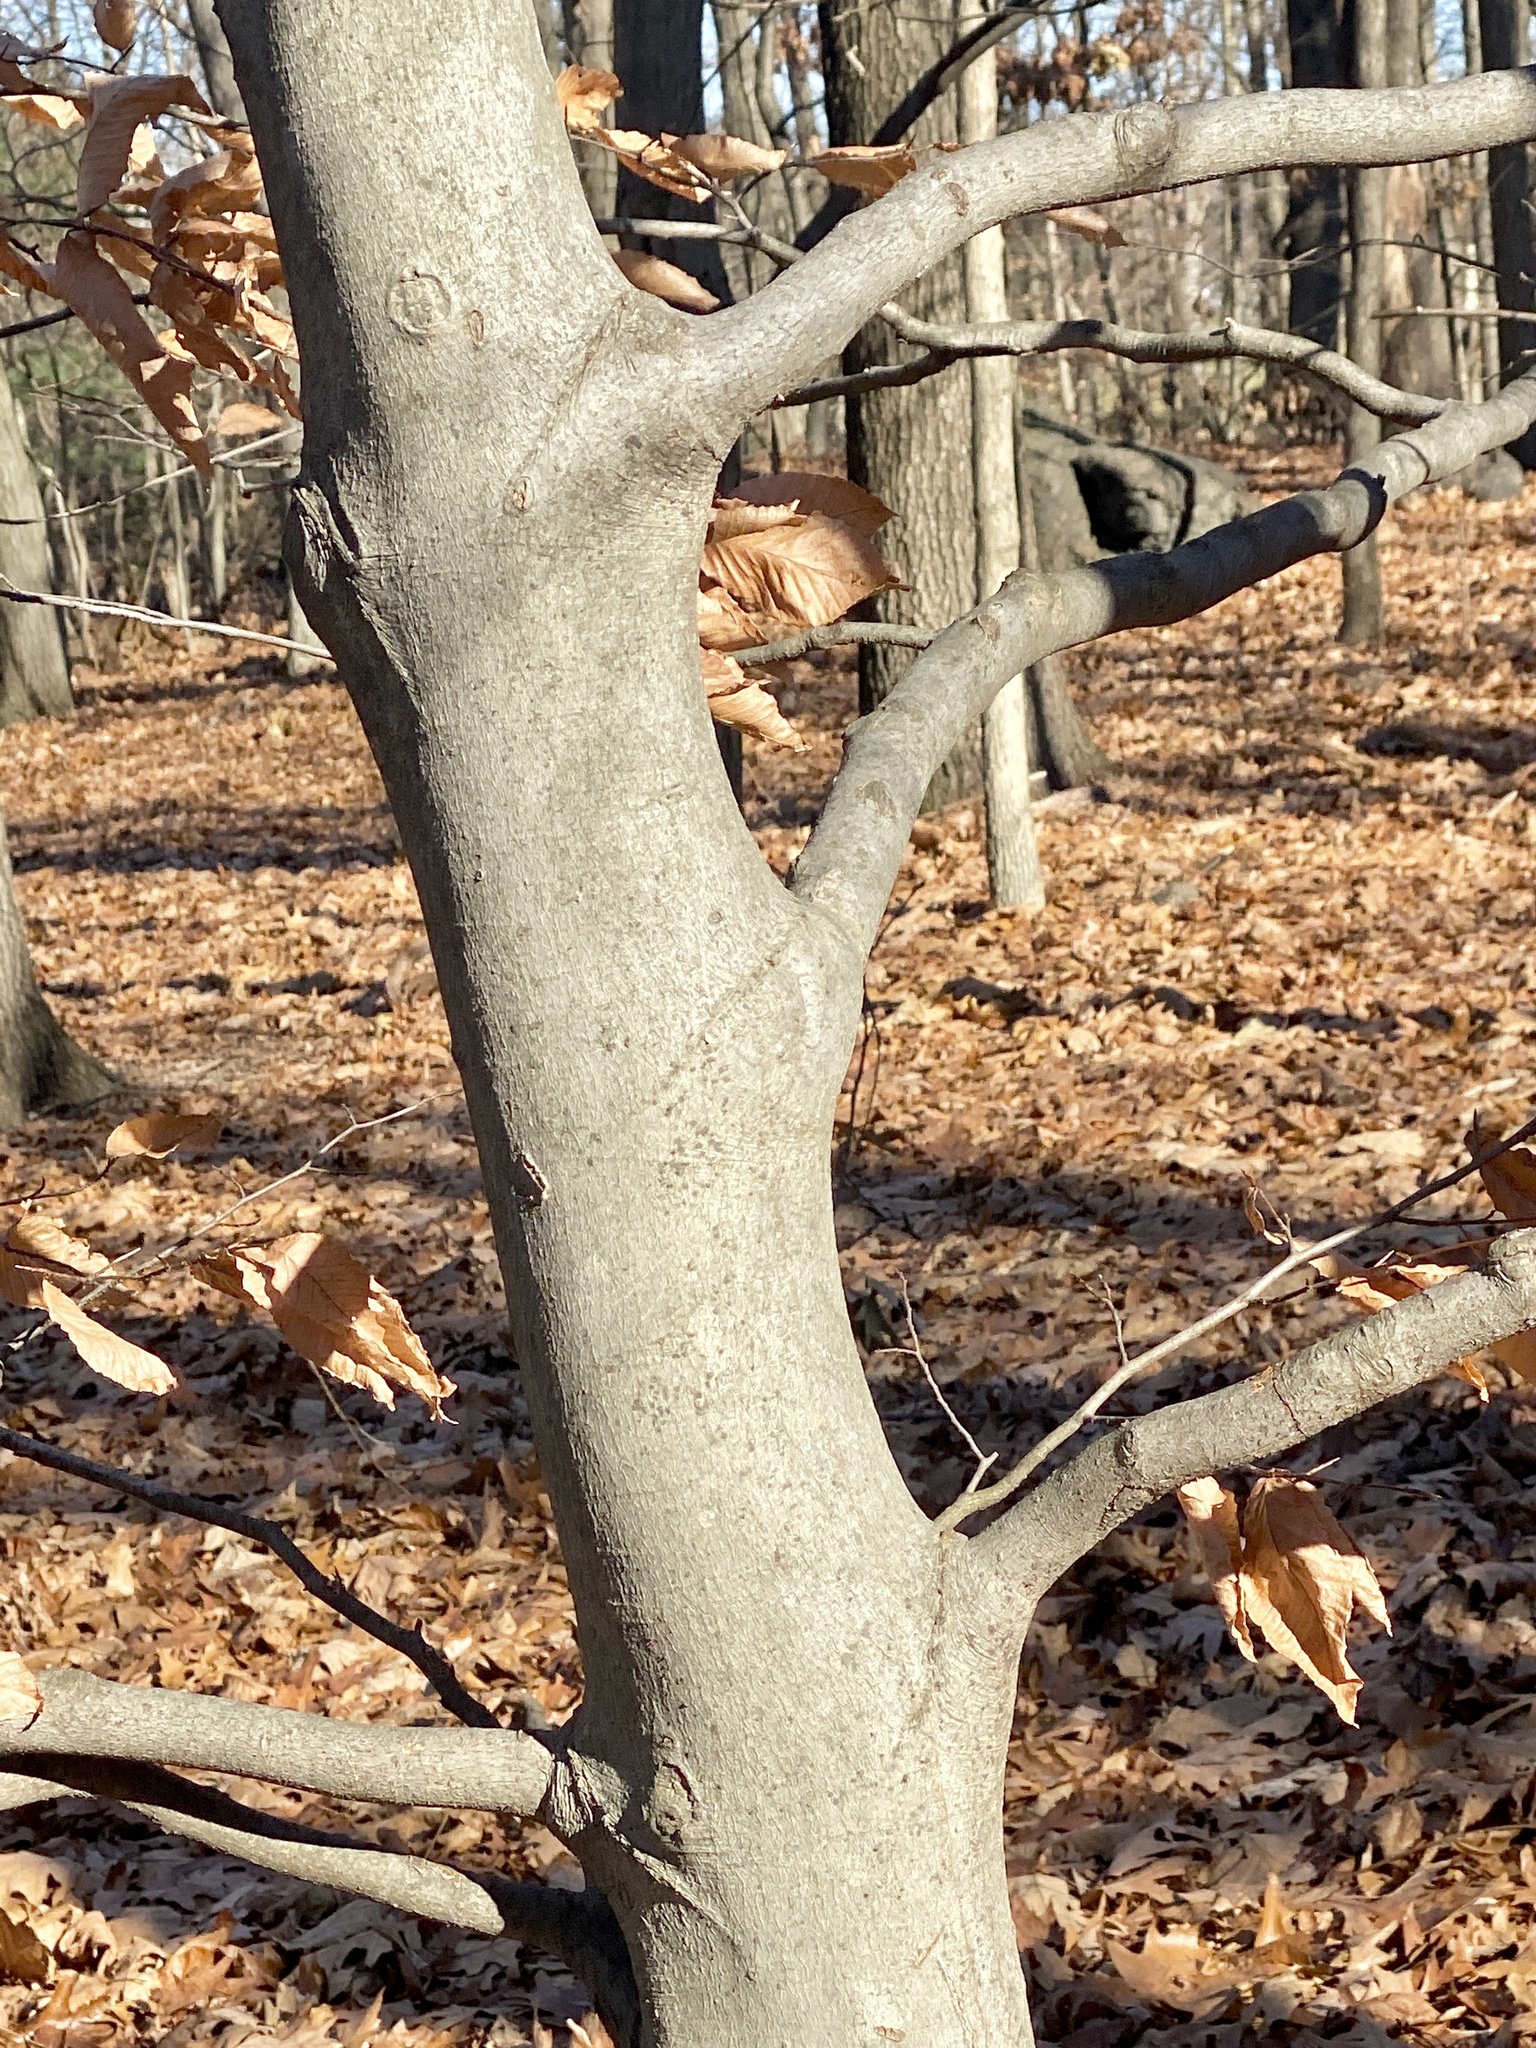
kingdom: Plantae
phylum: Tracheophyta
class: Magnoliopsida
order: Fagales
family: Fagaceae
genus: Fagus
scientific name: Fagus grandifolia
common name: American beech
